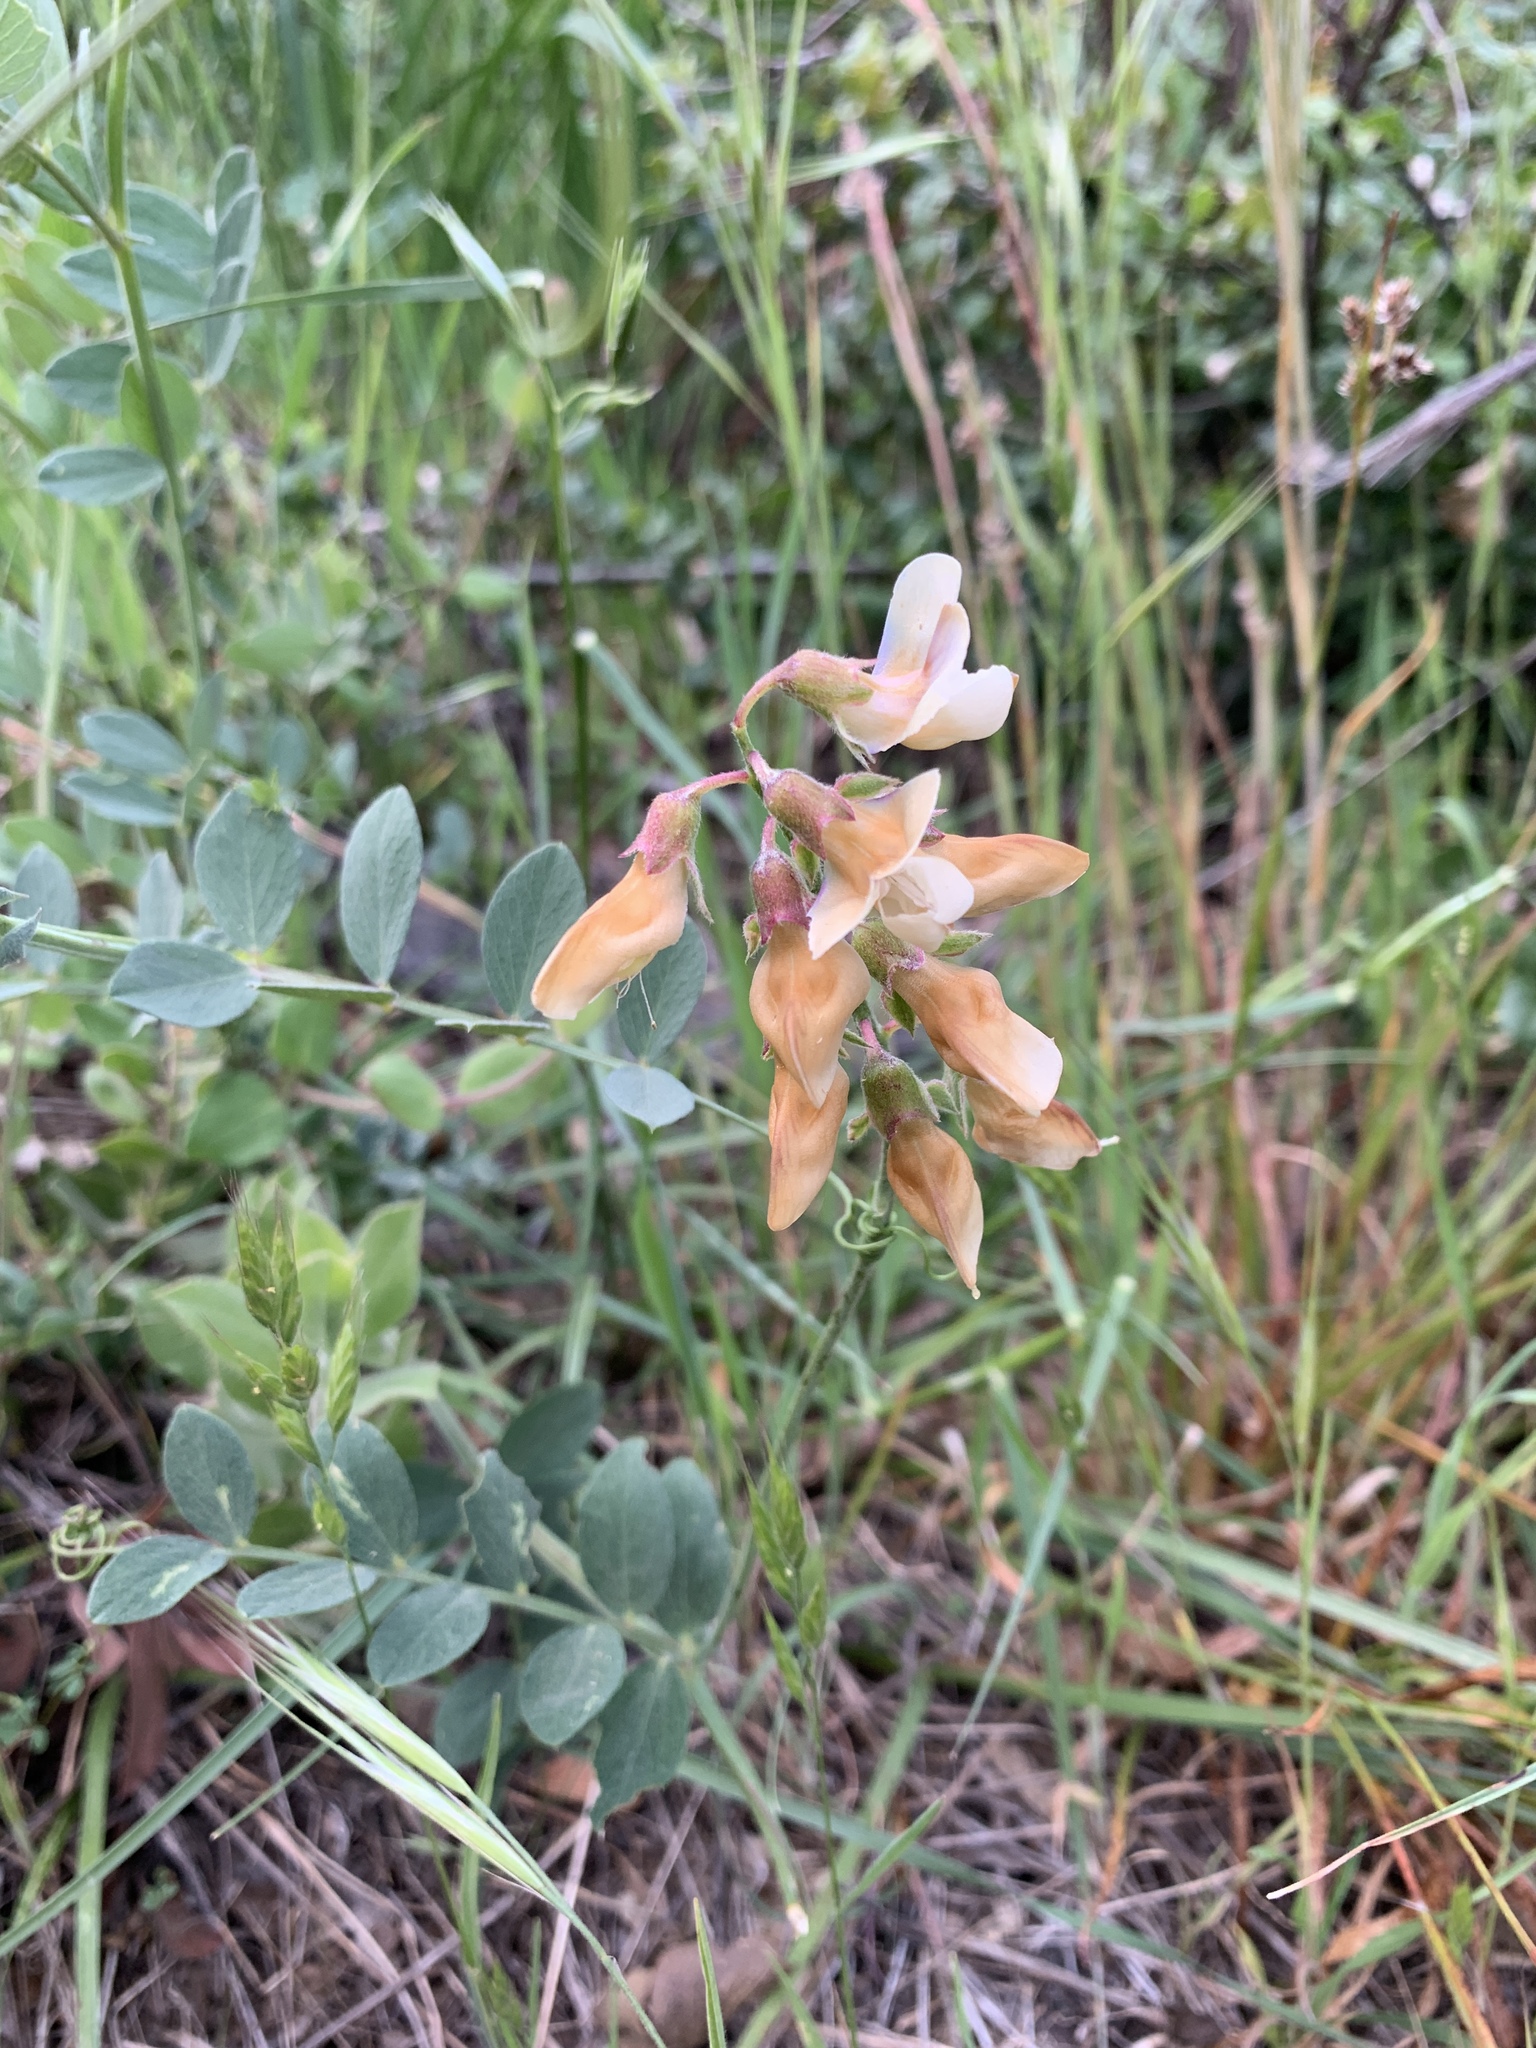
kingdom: Plantae
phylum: Tracheophyta
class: Magnoliopsida
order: Fabales
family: Fabaceae
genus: Lathyrus
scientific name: Lathyrus vestitus
